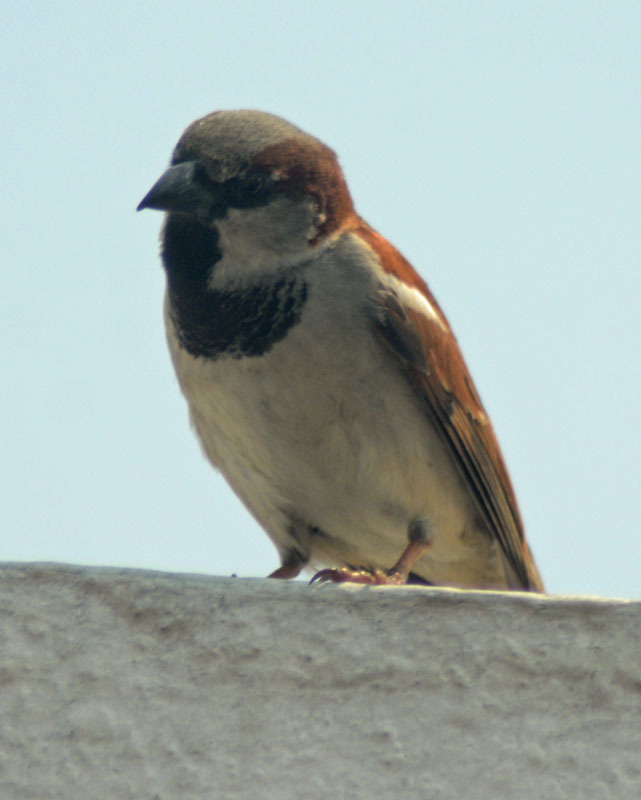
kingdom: Animalia
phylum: Chordata
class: Aves
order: Passeriformes
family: Passeridae
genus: Passer
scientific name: Passer domesticus
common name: House sparrow
